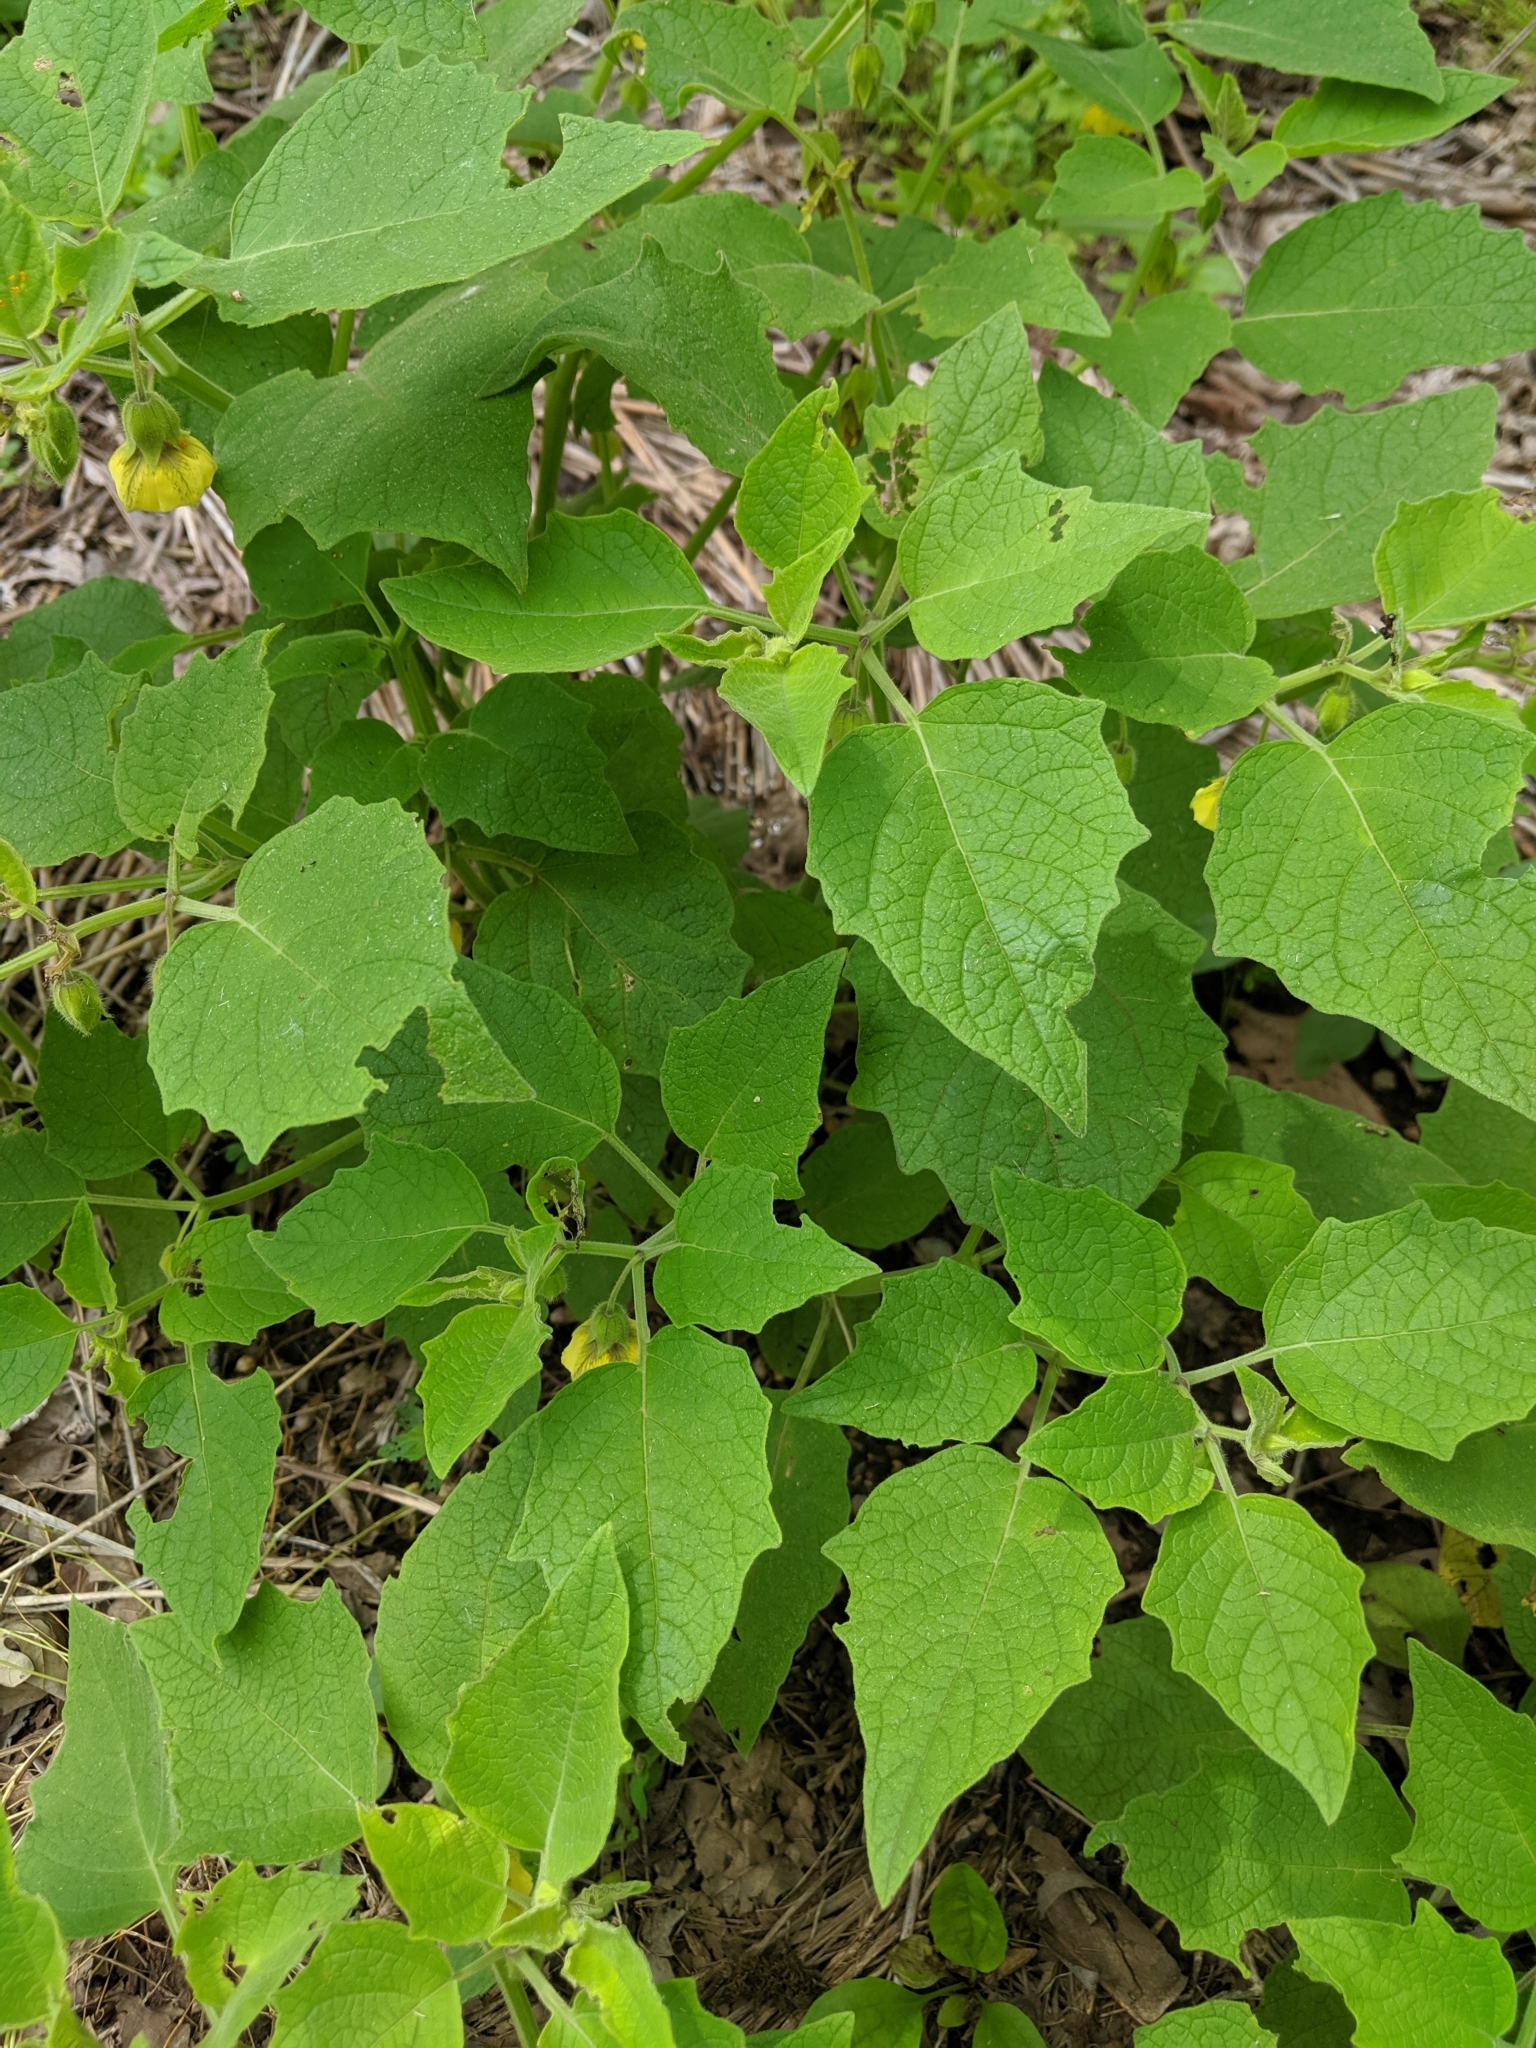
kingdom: Plantae
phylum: Tracheophyta
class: Magnoliopsida
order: Solanales
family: Solanaceae
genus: Physalis
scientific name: Physalis heterophylla
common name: Clammy ground-cherry
